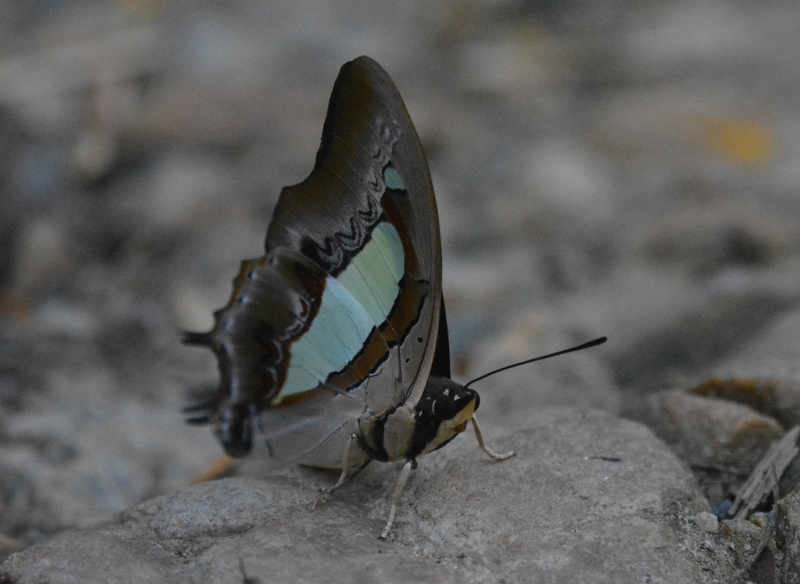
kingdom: Animalia
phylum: Arthropoda
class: Insecta
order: Lepidoptera
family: Nymphalidae
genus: Polyura
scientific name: Polyura athamas
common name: Common nawab
